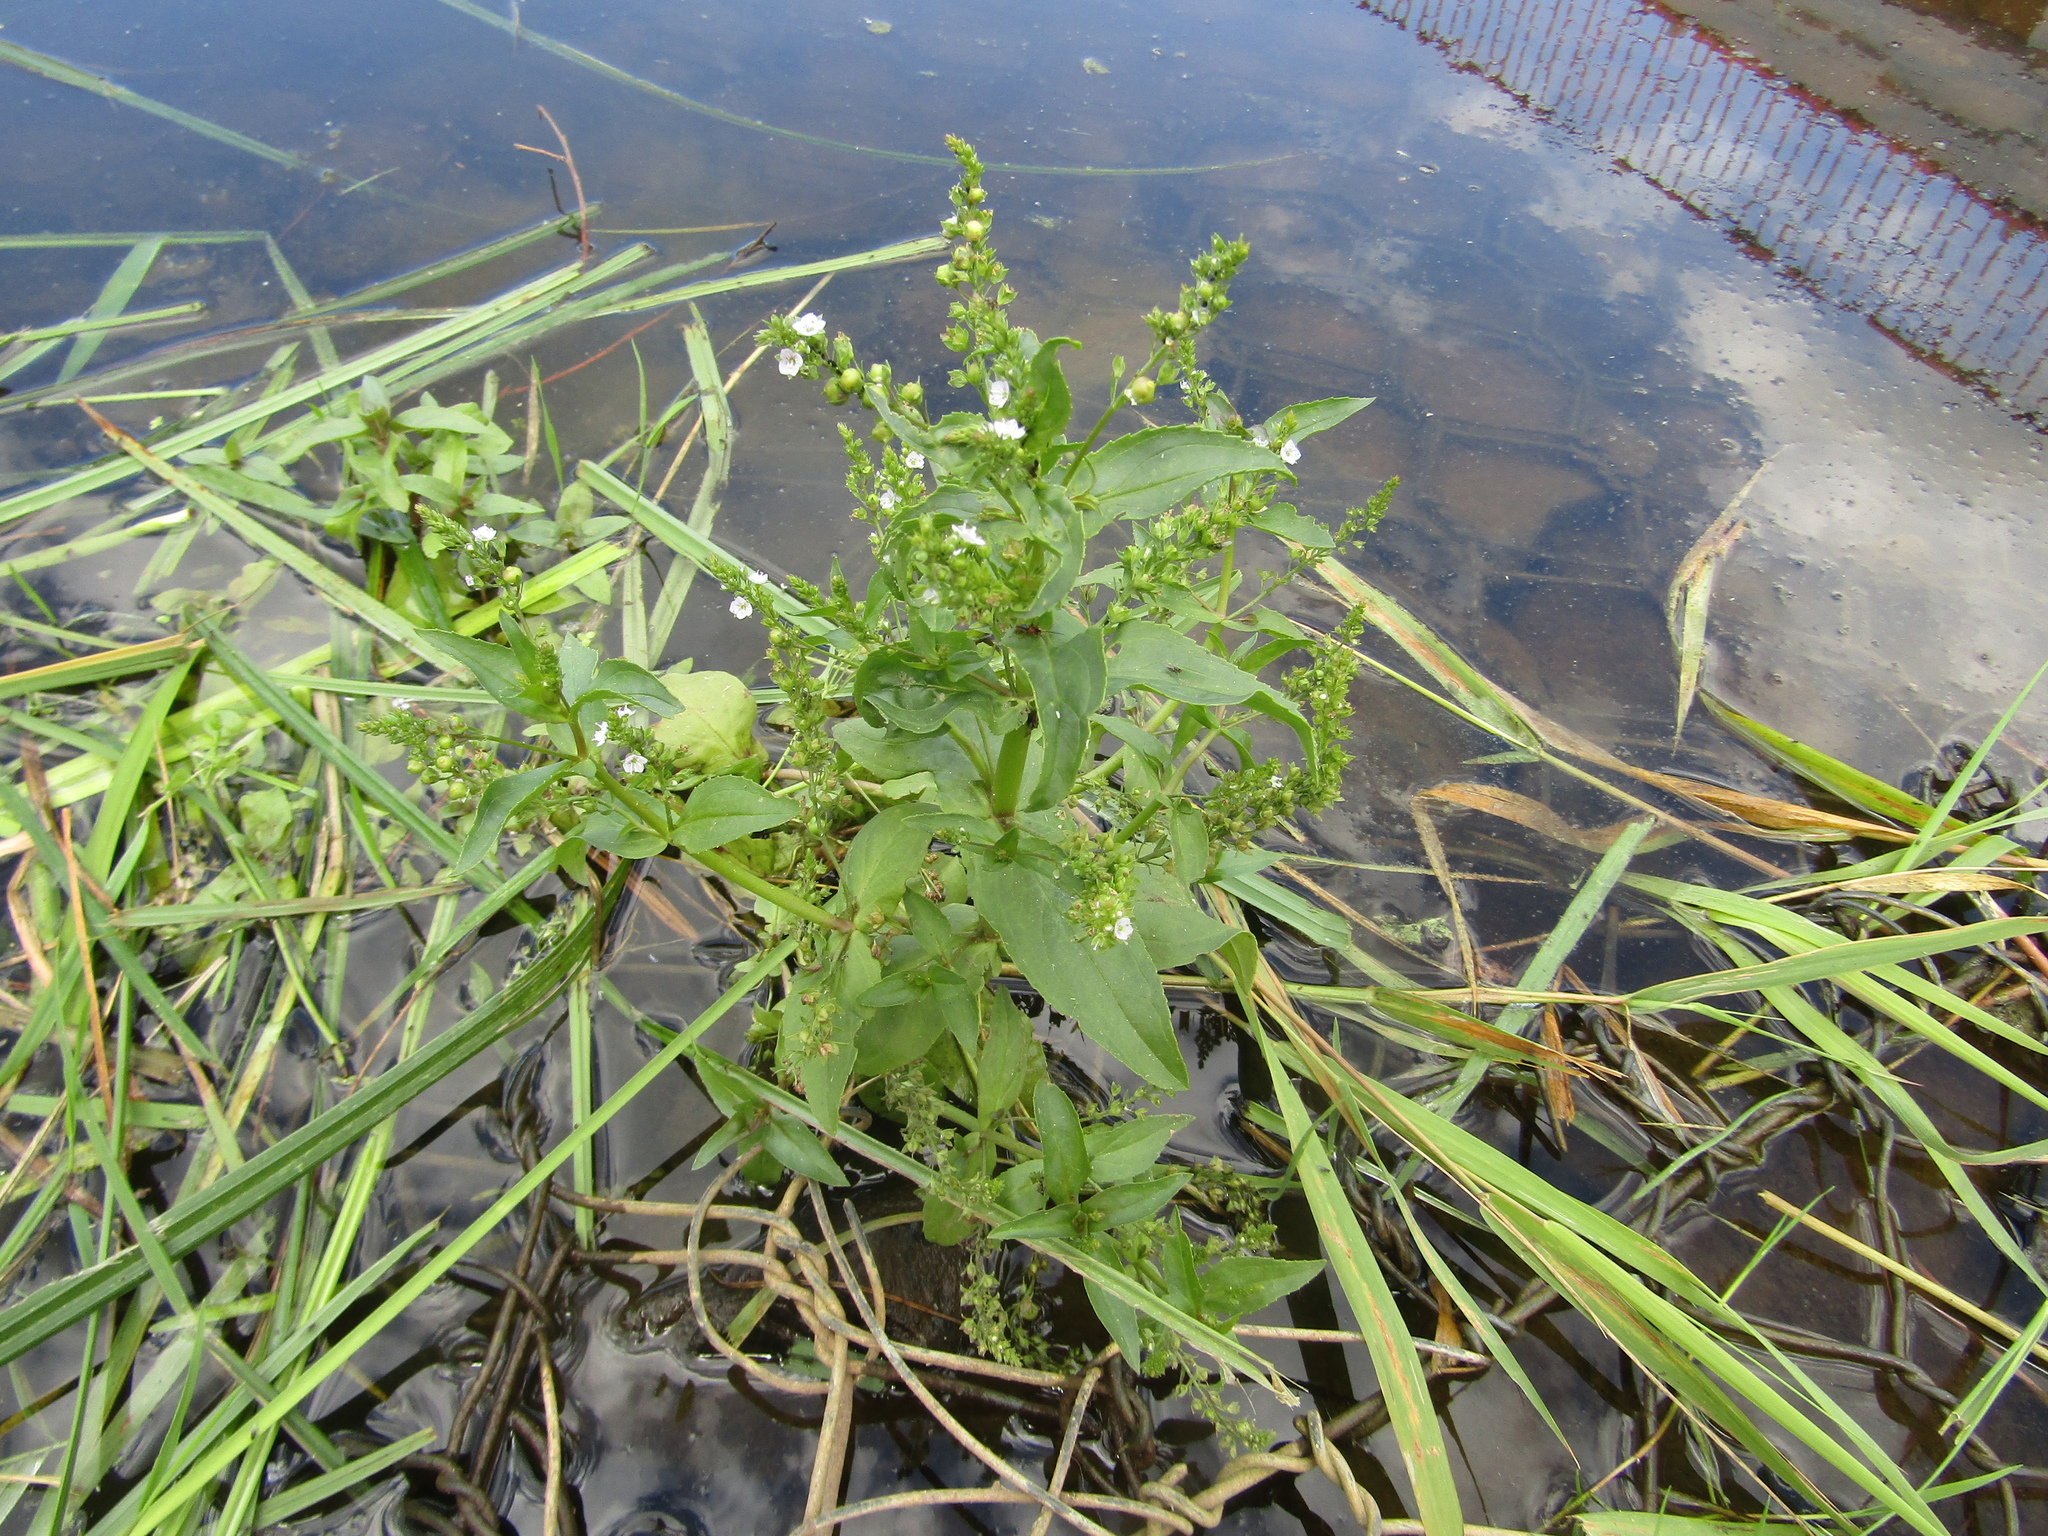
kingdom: Plantae
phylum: Tracheophyta
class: Magnoliopsida
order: Lamiales
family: Plantaginaceae
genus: Veronica
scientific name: Veronica anagallis-aquatica
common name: Water speedwell
